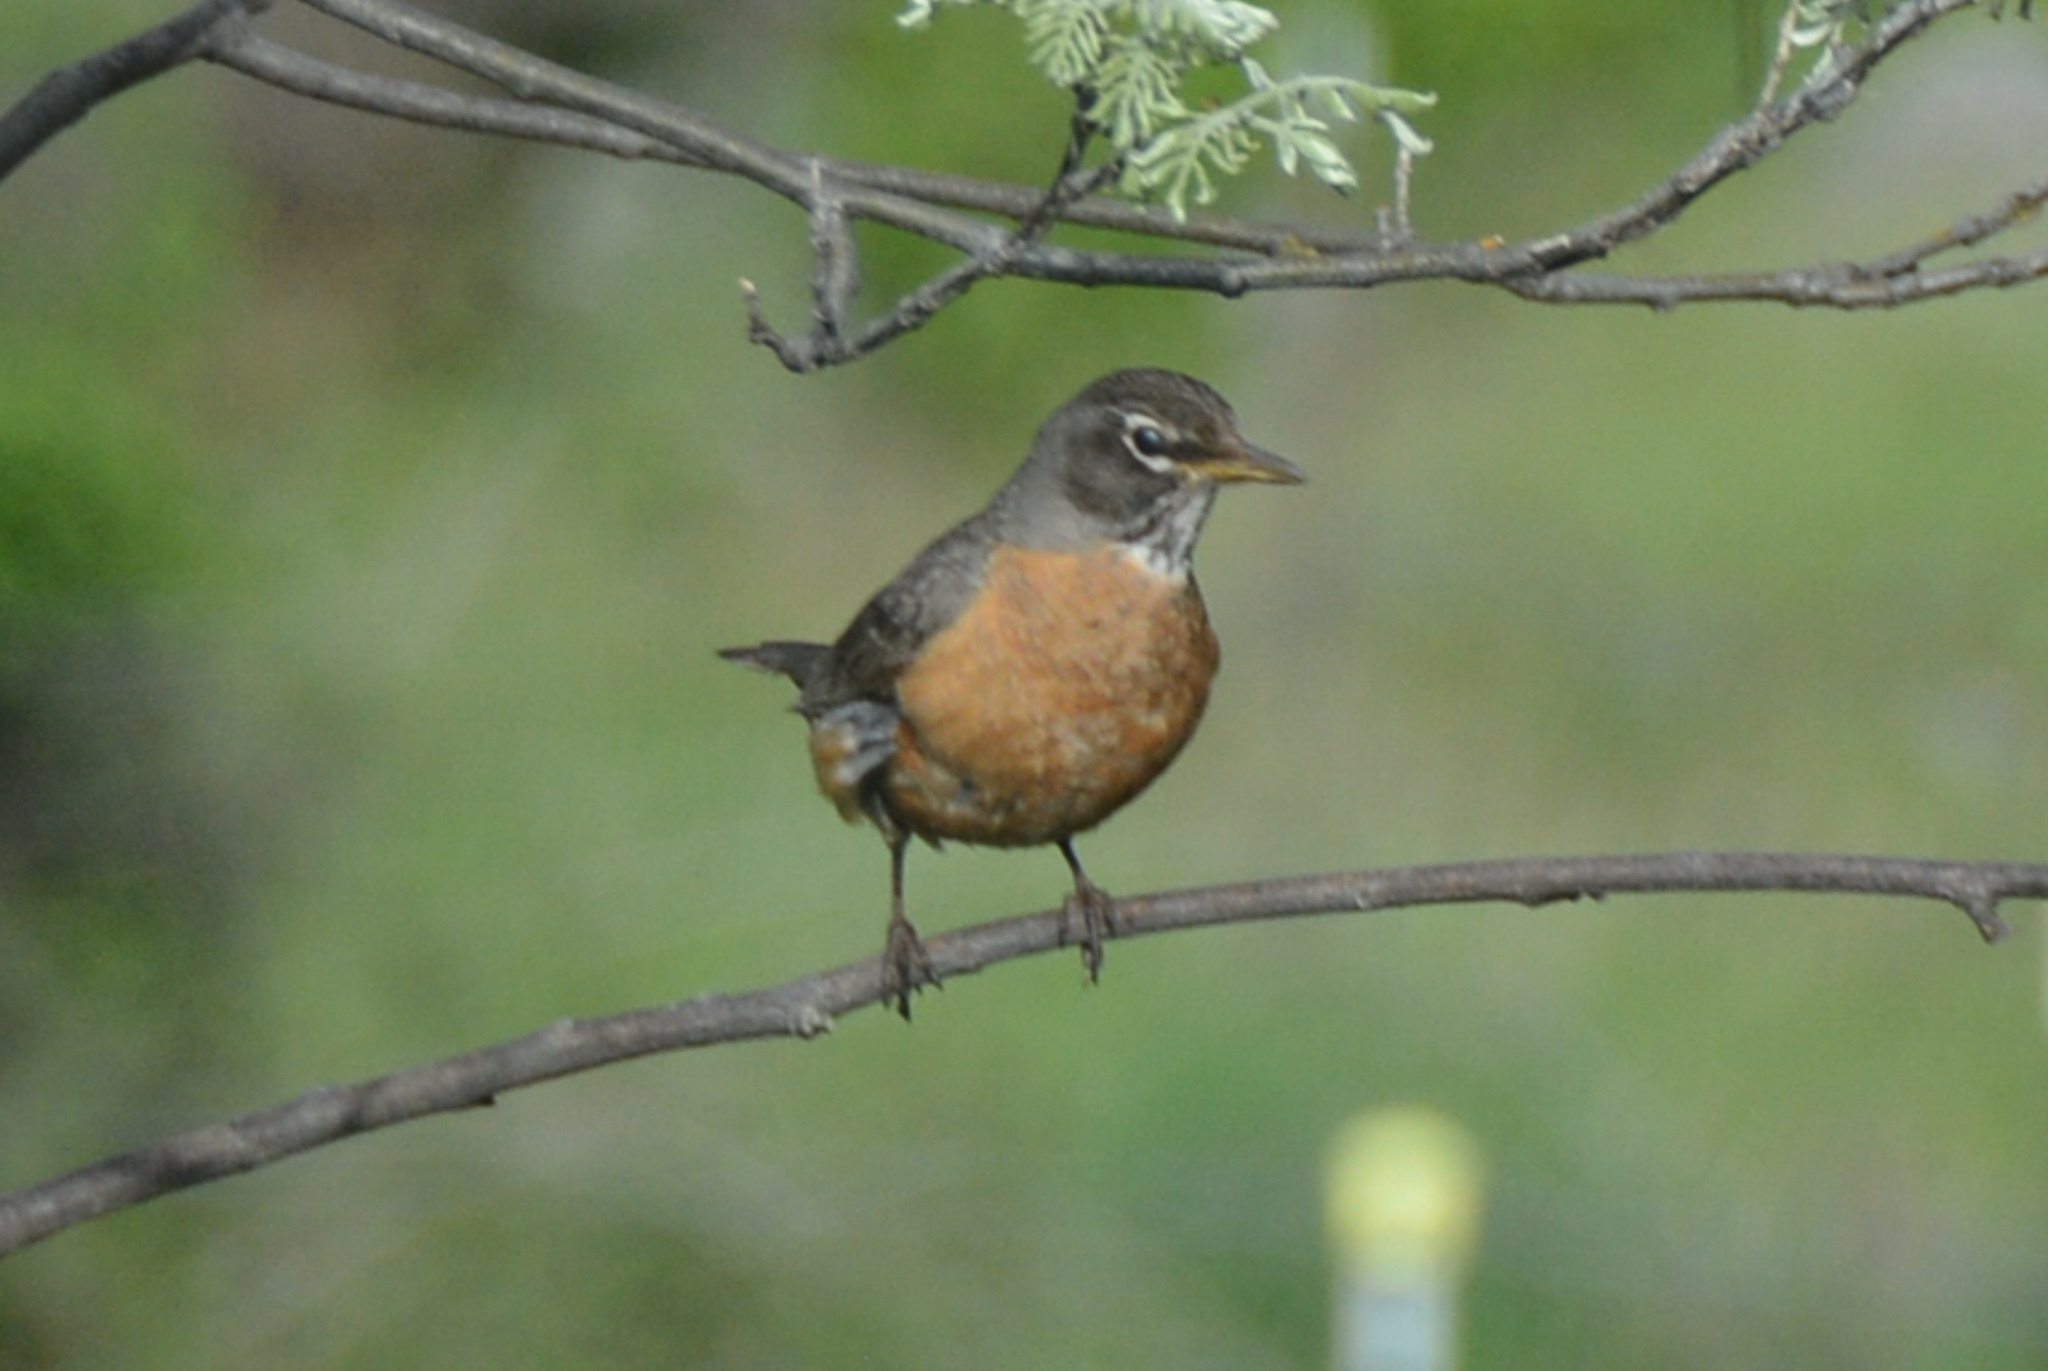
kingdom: Animalia
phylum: Chordata
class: Aves
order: Passeriformes
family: Turdidae
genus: Turdus
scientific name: Turdus migratorius
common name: American robin
